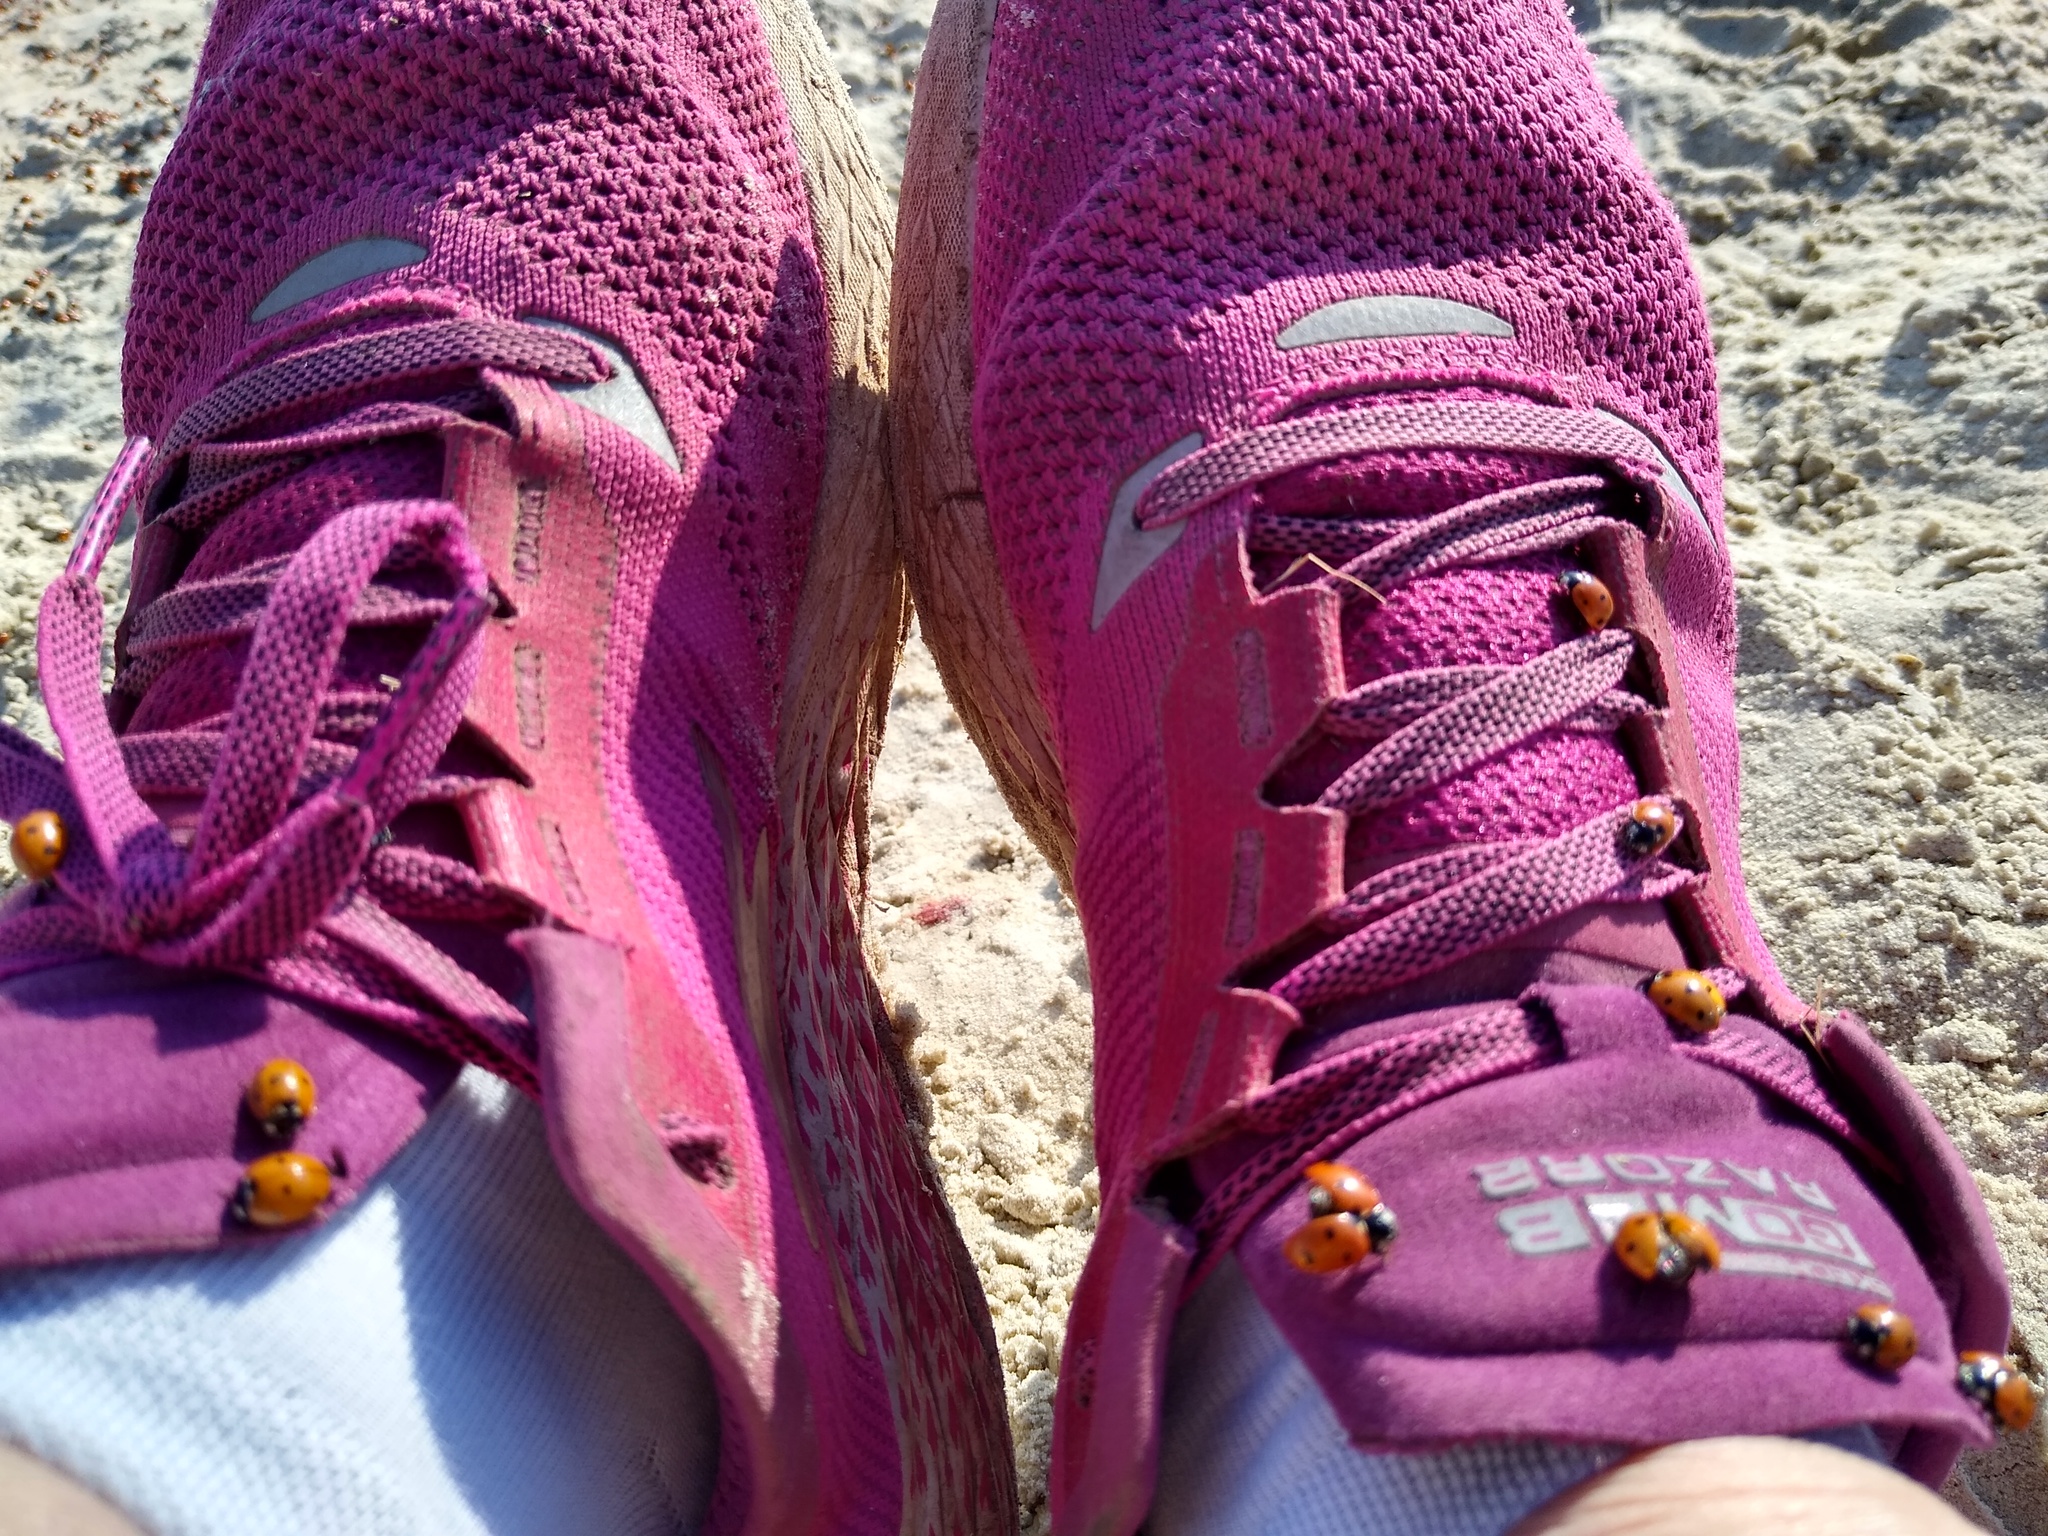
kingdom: Animalia
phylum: Arthropoda
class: Insecta
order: Coleoptera
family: Coccinellidae
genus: Coccinella
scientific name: Coccinella septempunctata
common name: Sevenspotted lady beetle
